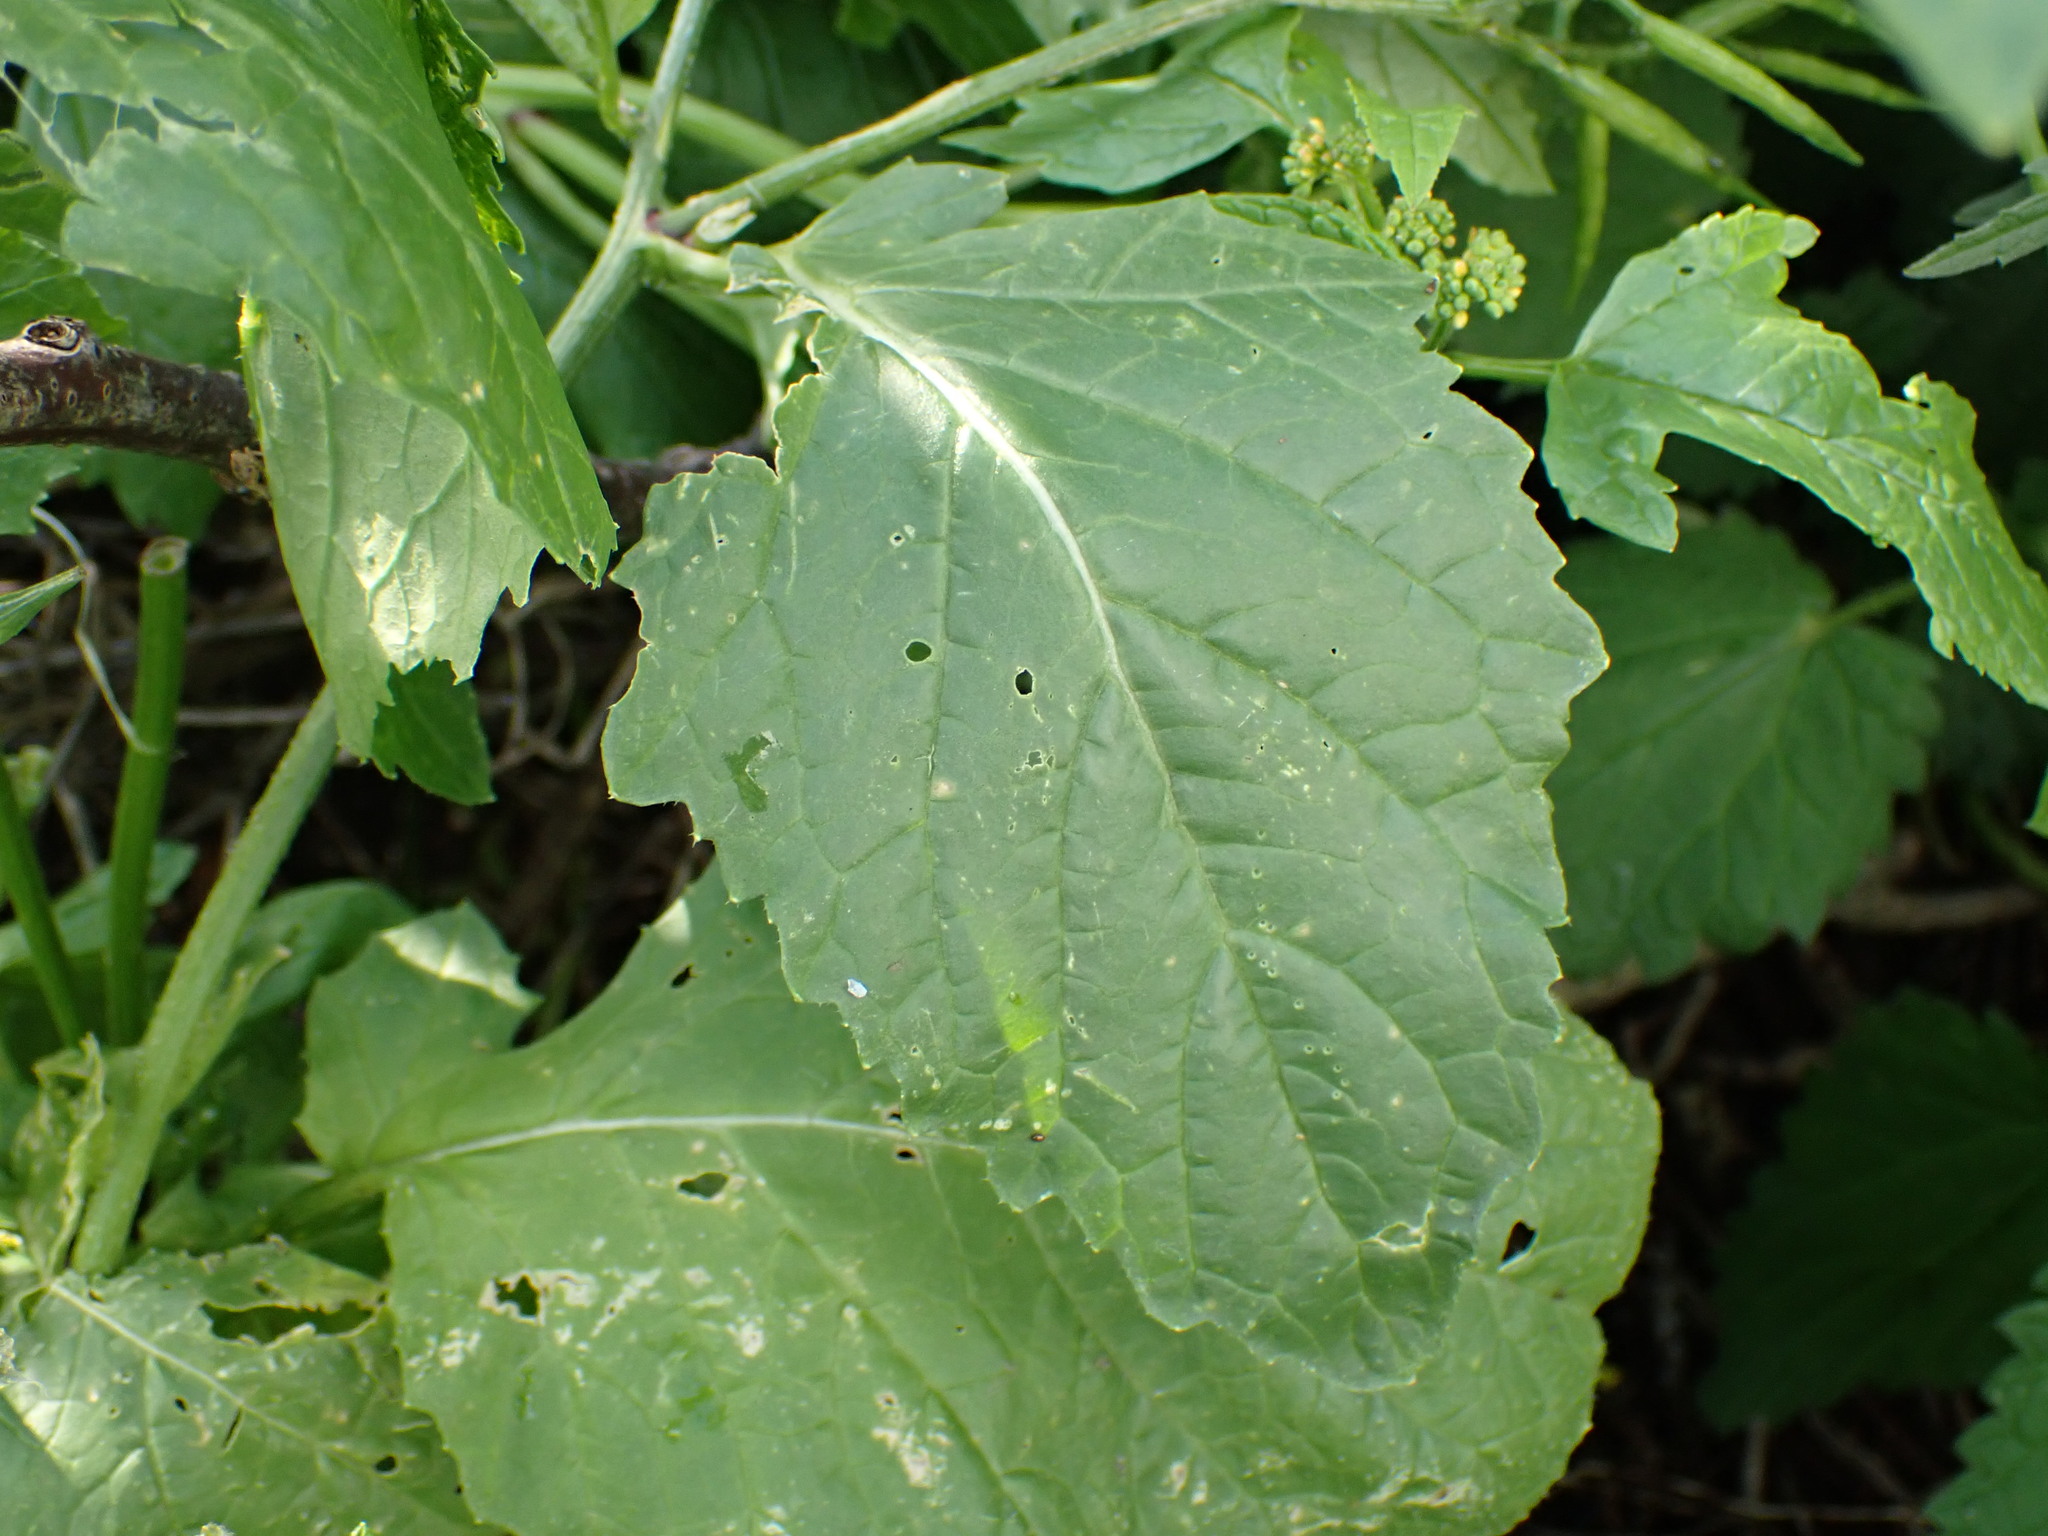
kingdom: Plantae
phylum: Tracheophyta
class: Magnoliopsida
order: Brassicales
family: Brassicaceae
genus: Sinapis
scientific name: Sinapis arvensis
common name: Charlock
